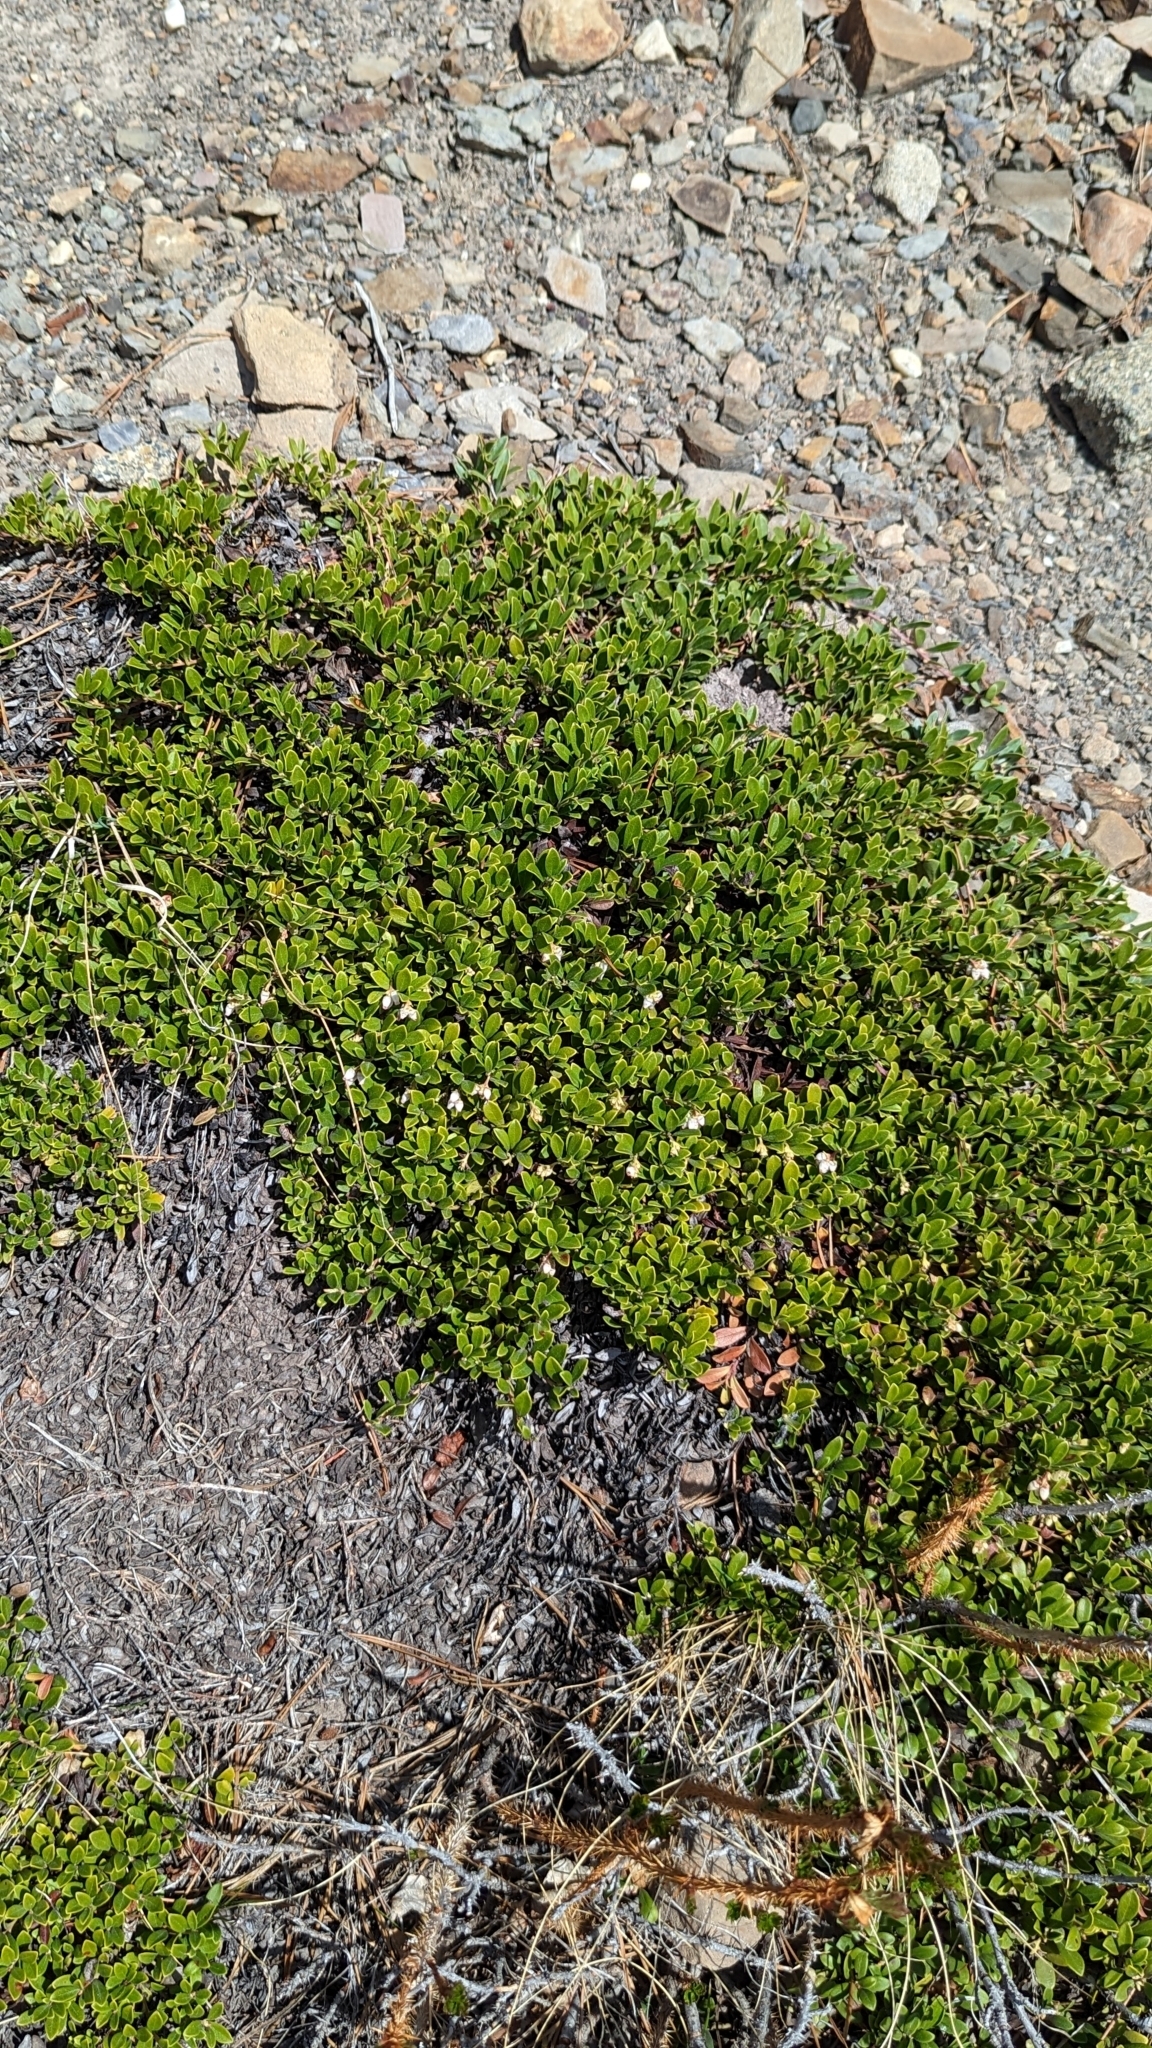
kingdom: Plantae
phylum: Tracheophyta
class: Magnoliopsida
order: Ericales
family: Ericaceae
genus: Arctostaphylos
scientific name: Arctostaphylos uva-ursi
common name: Bearberry
